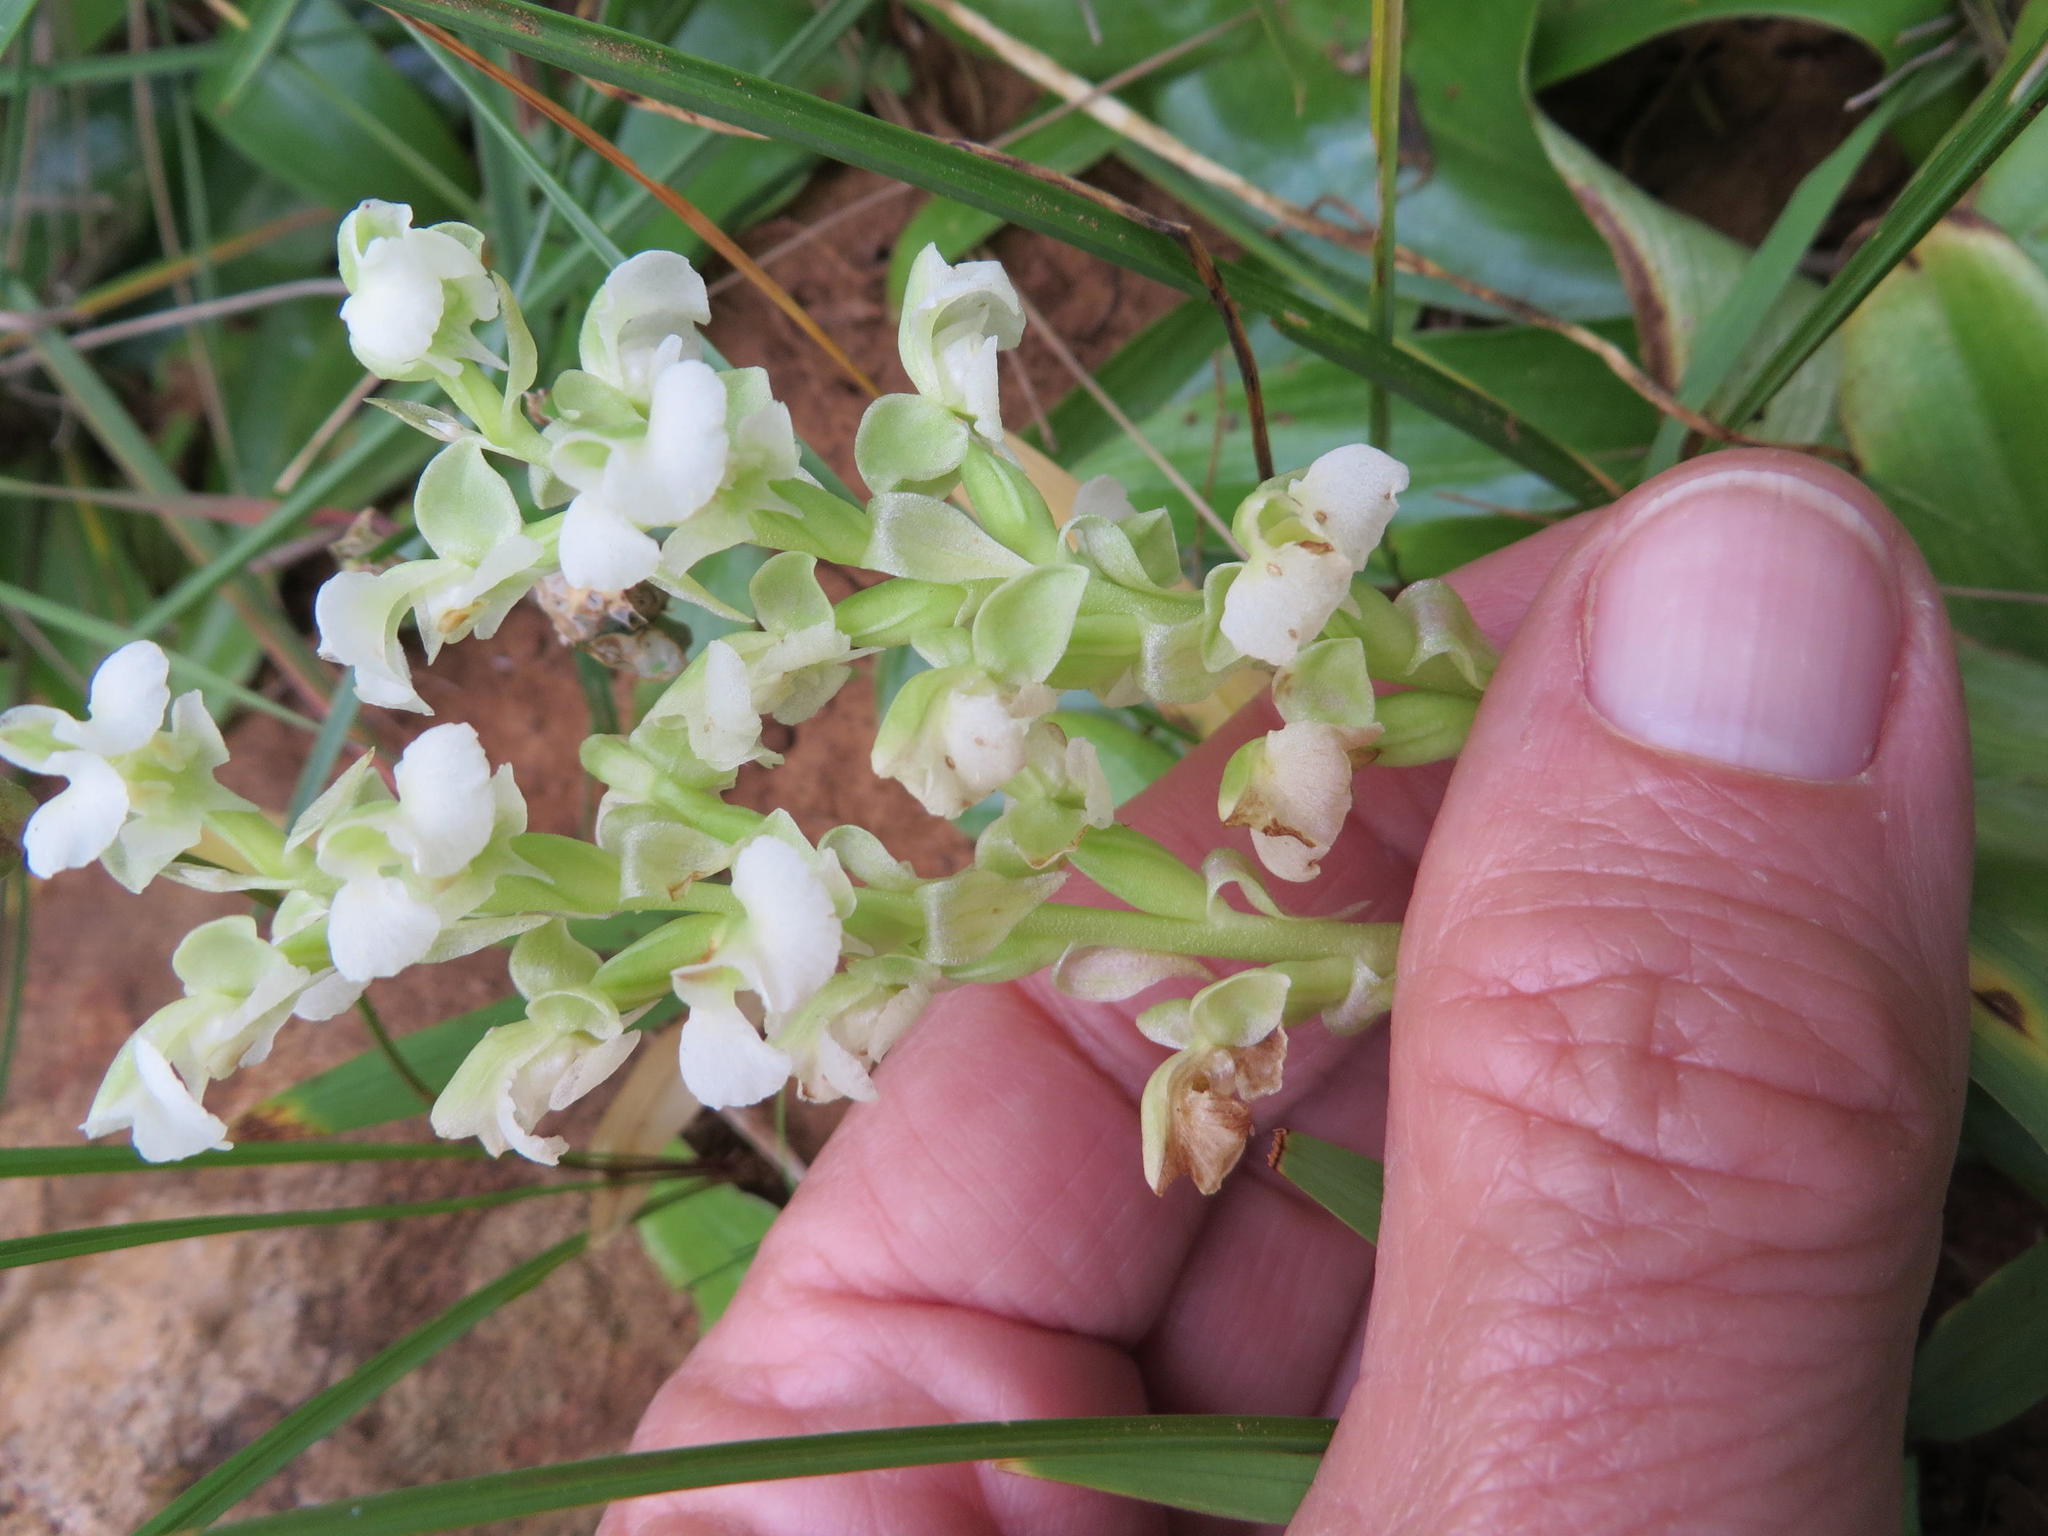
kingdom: Plantae
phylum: Tracheophyta
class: Liliopsida
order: Asparagales
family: Orchidaceae
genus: Pterygodium
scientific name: Pterygodium schelpei
